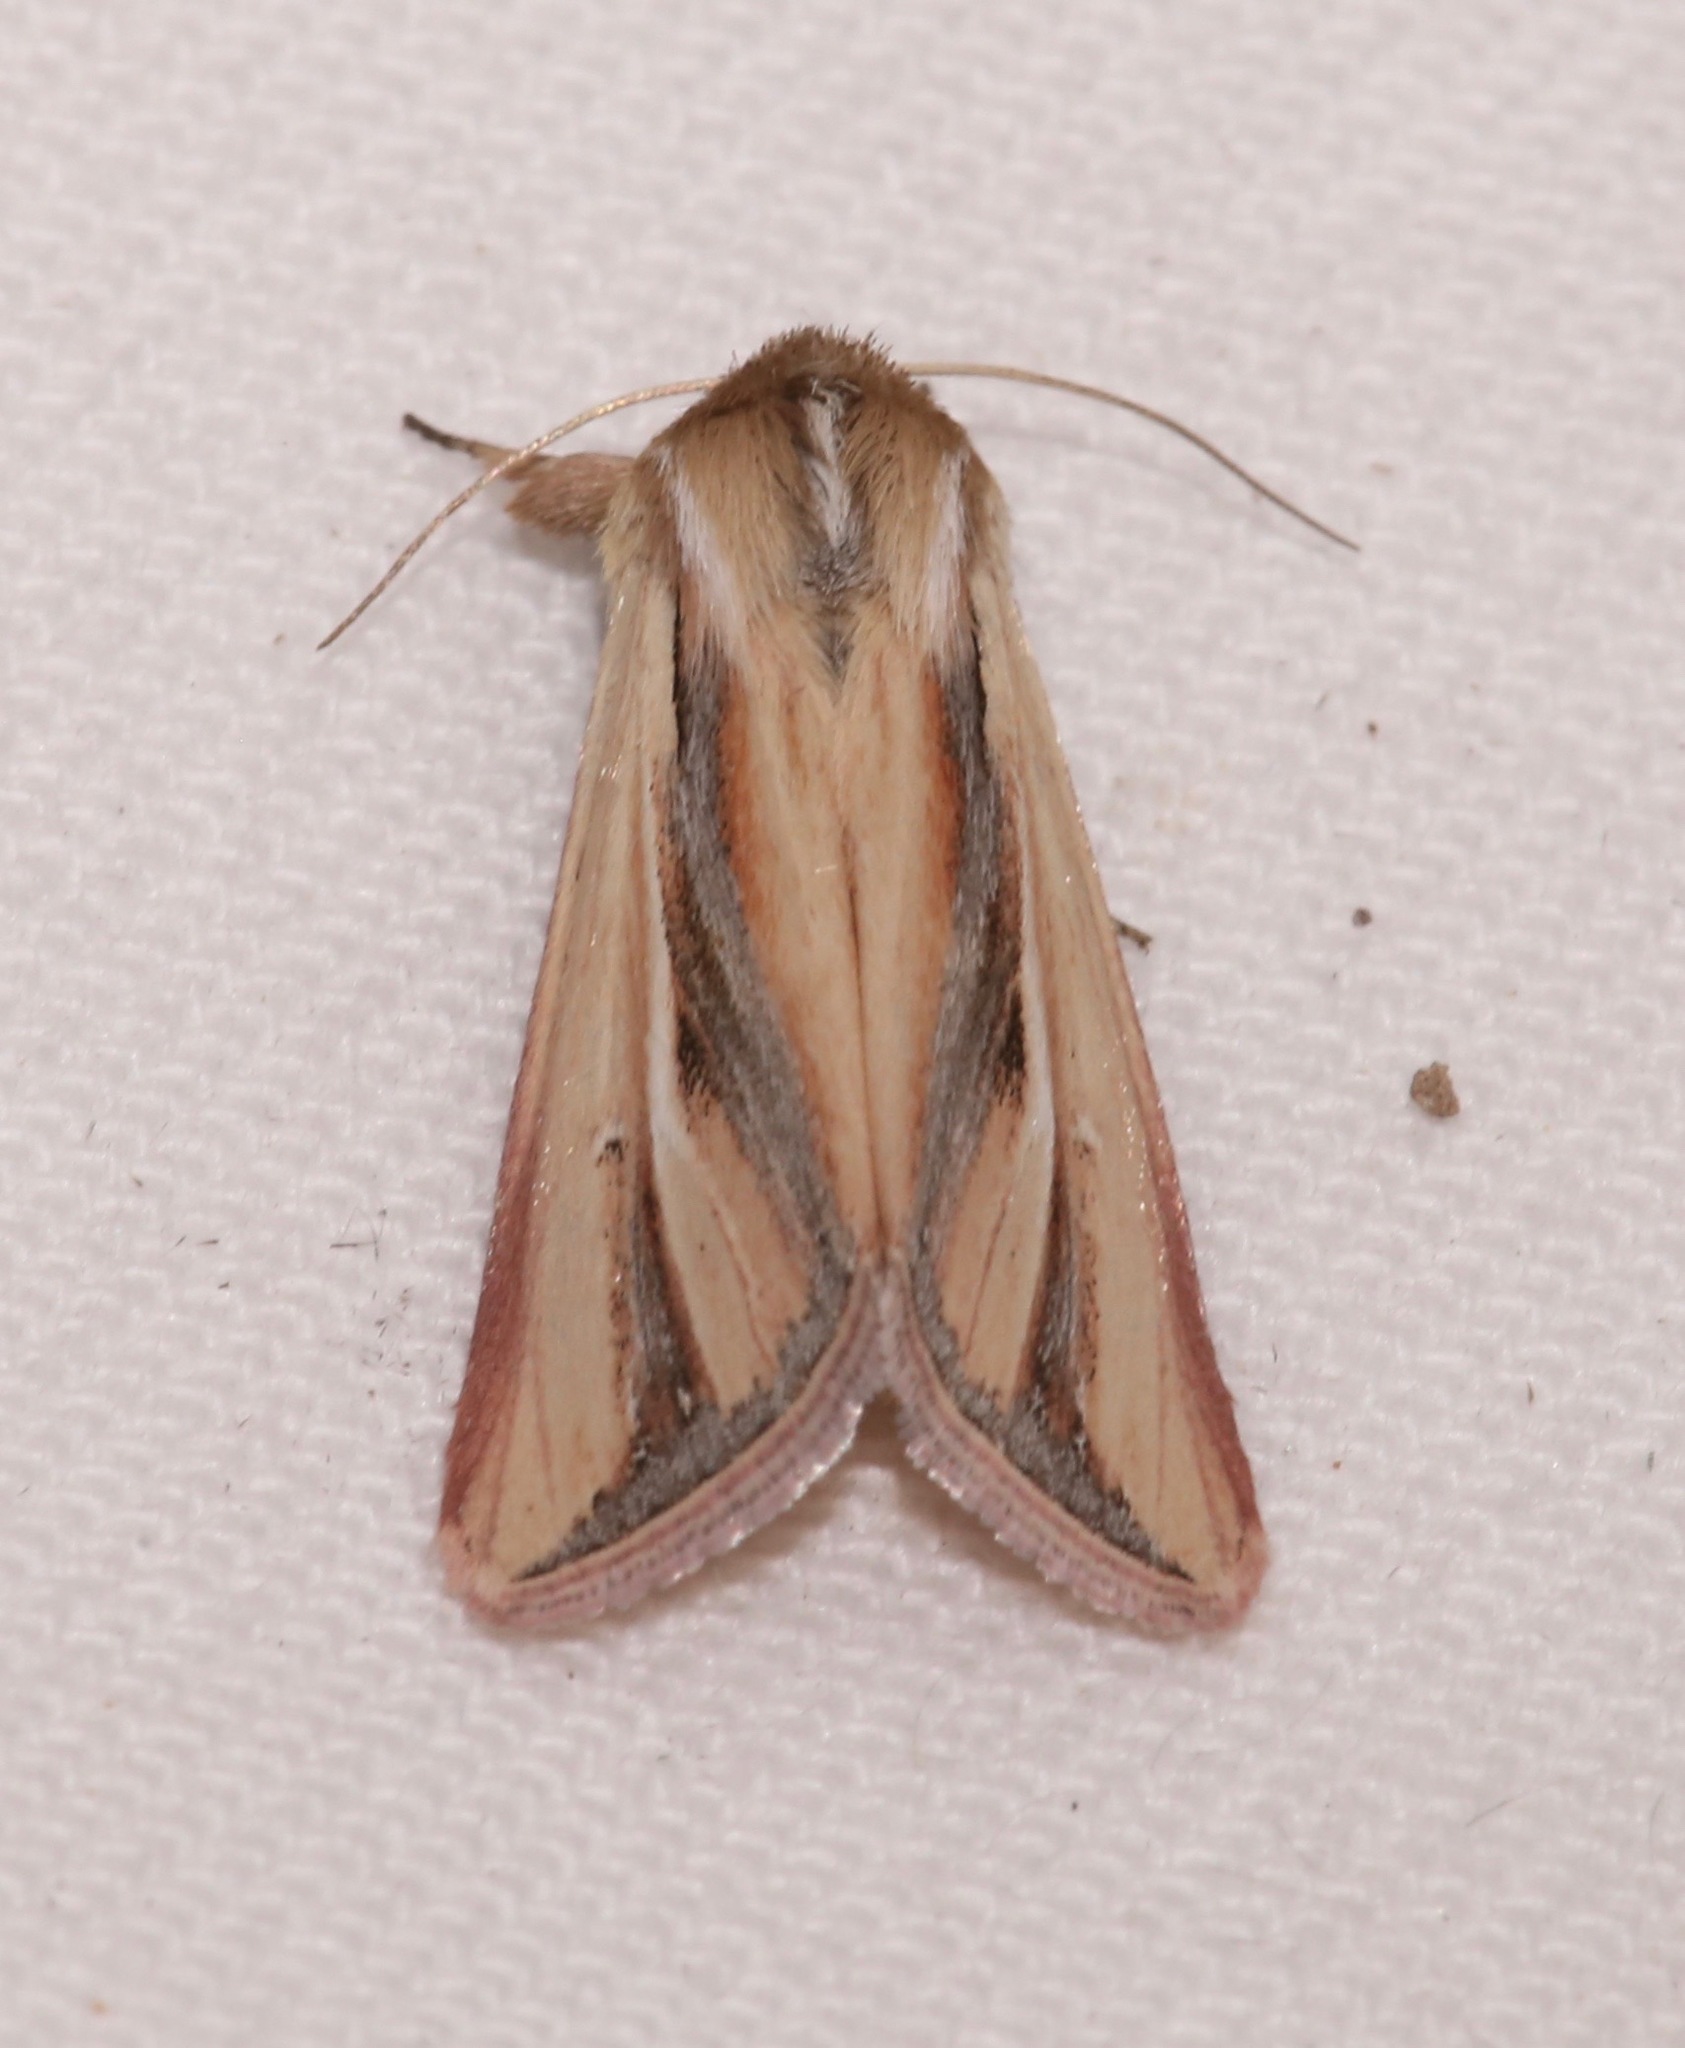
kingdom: Animalia
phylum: Arthropoda
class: Insecta
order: Lepidoptera
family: Noctuidae
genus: Dargida
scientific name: Dargida tetera
